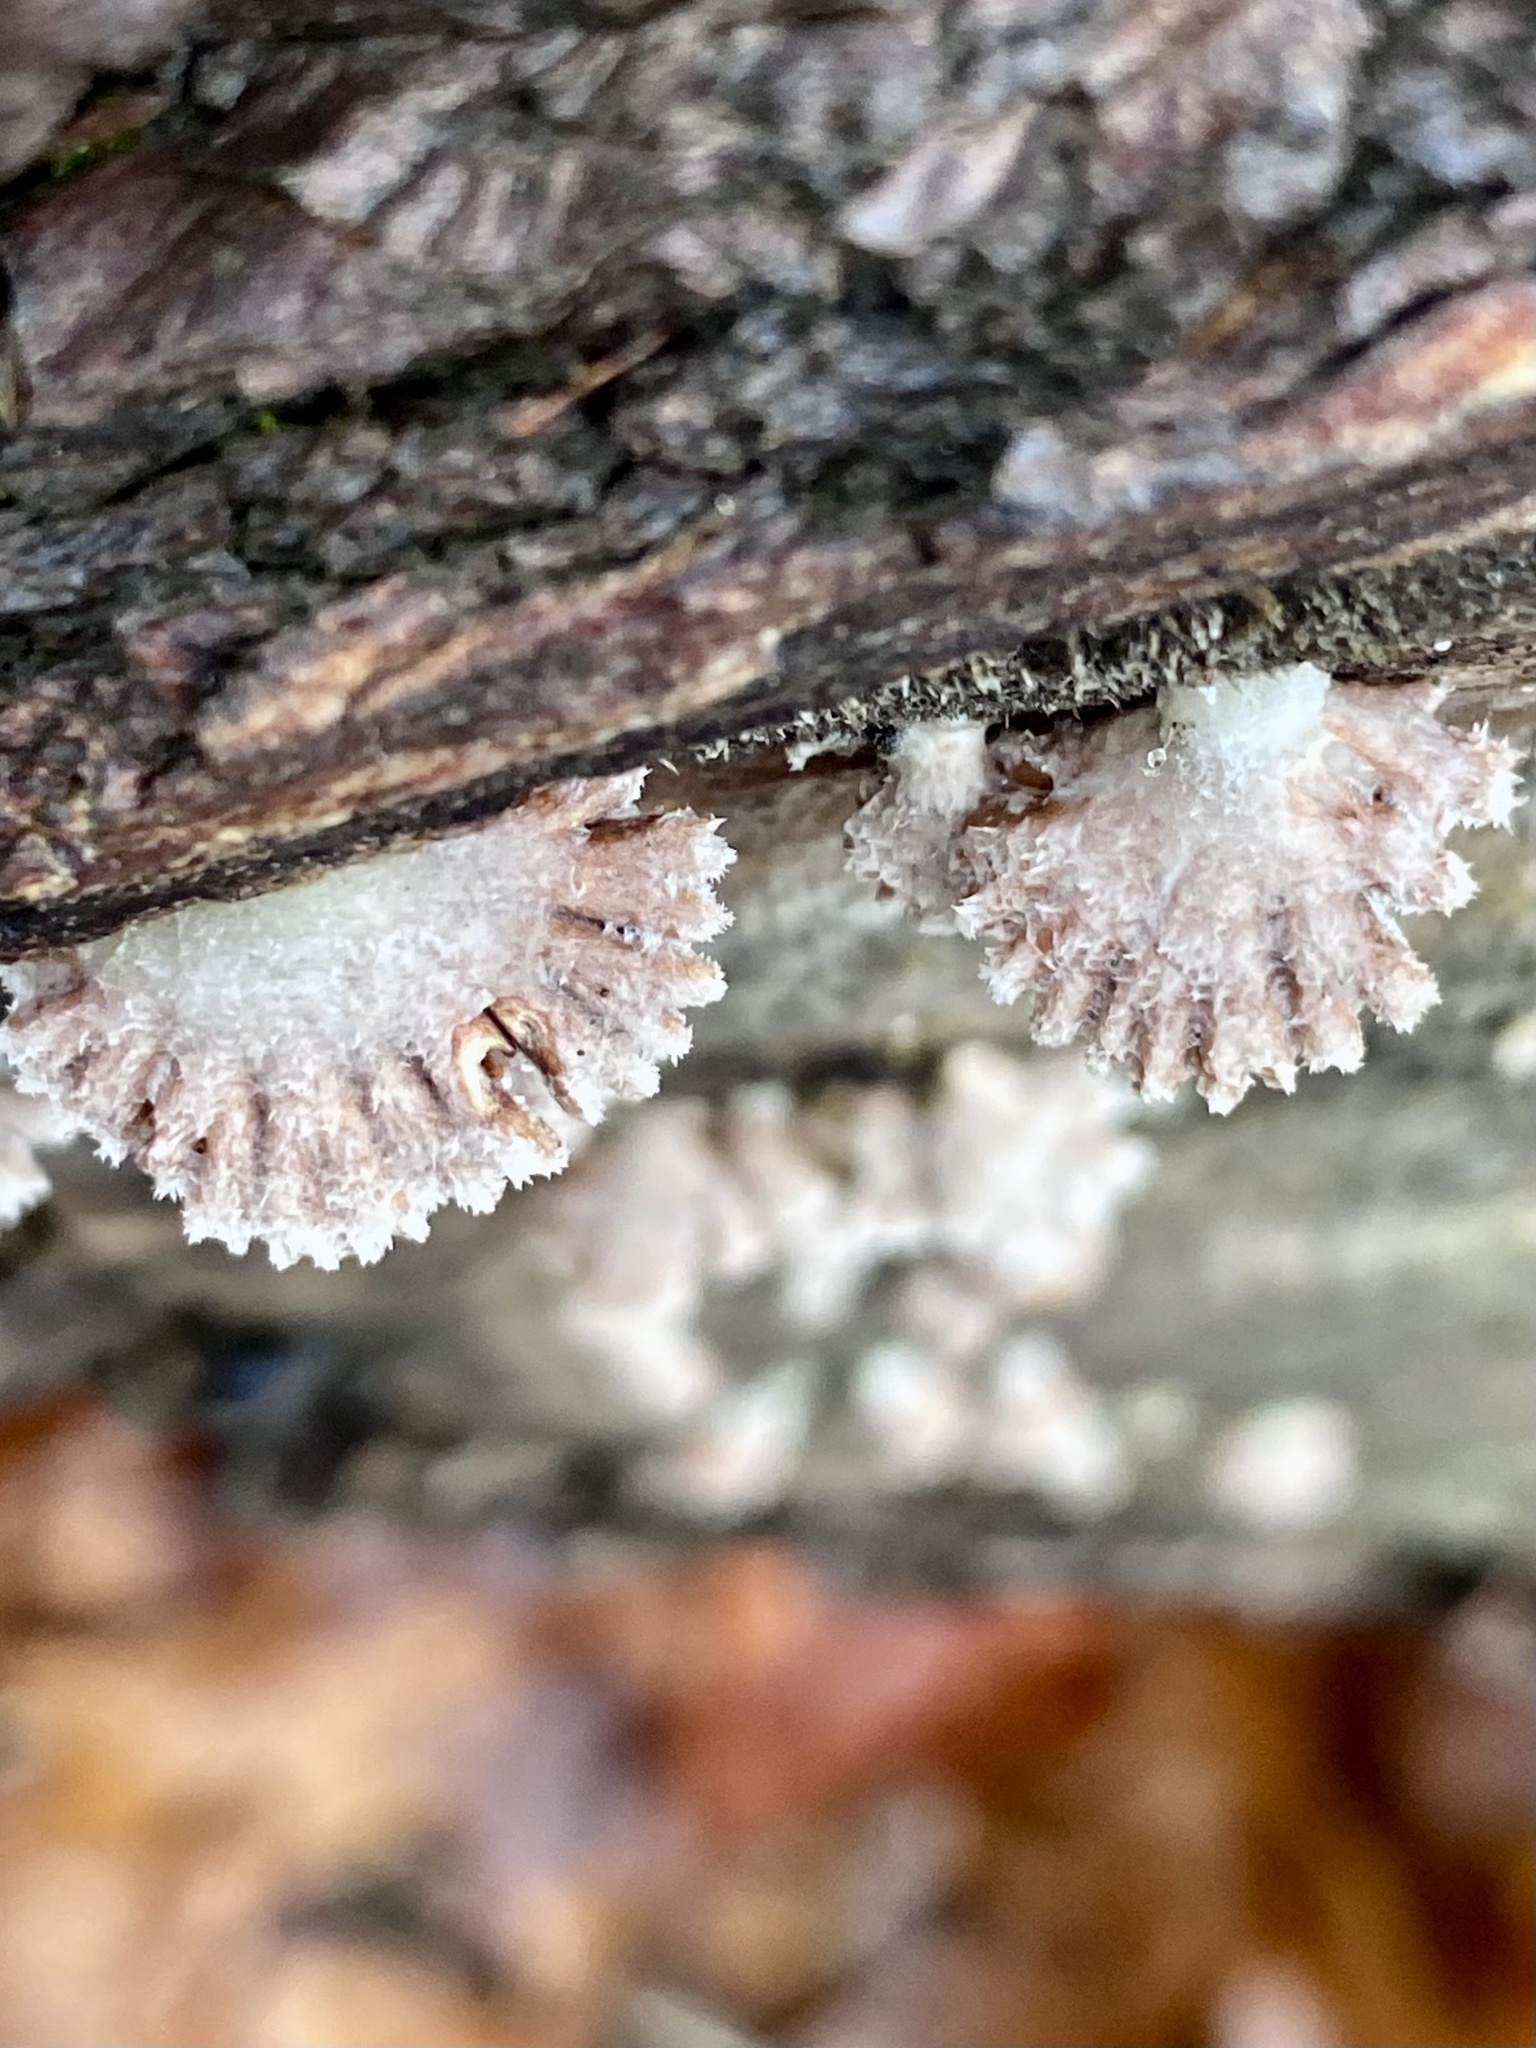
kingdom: Fungi
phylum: Basidiomycota
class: Agaricomycetes
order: Agaricales
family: Schizophyllaceae
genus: Schizophyllum
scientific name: Schizophyllum commune
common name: Common porecrust
